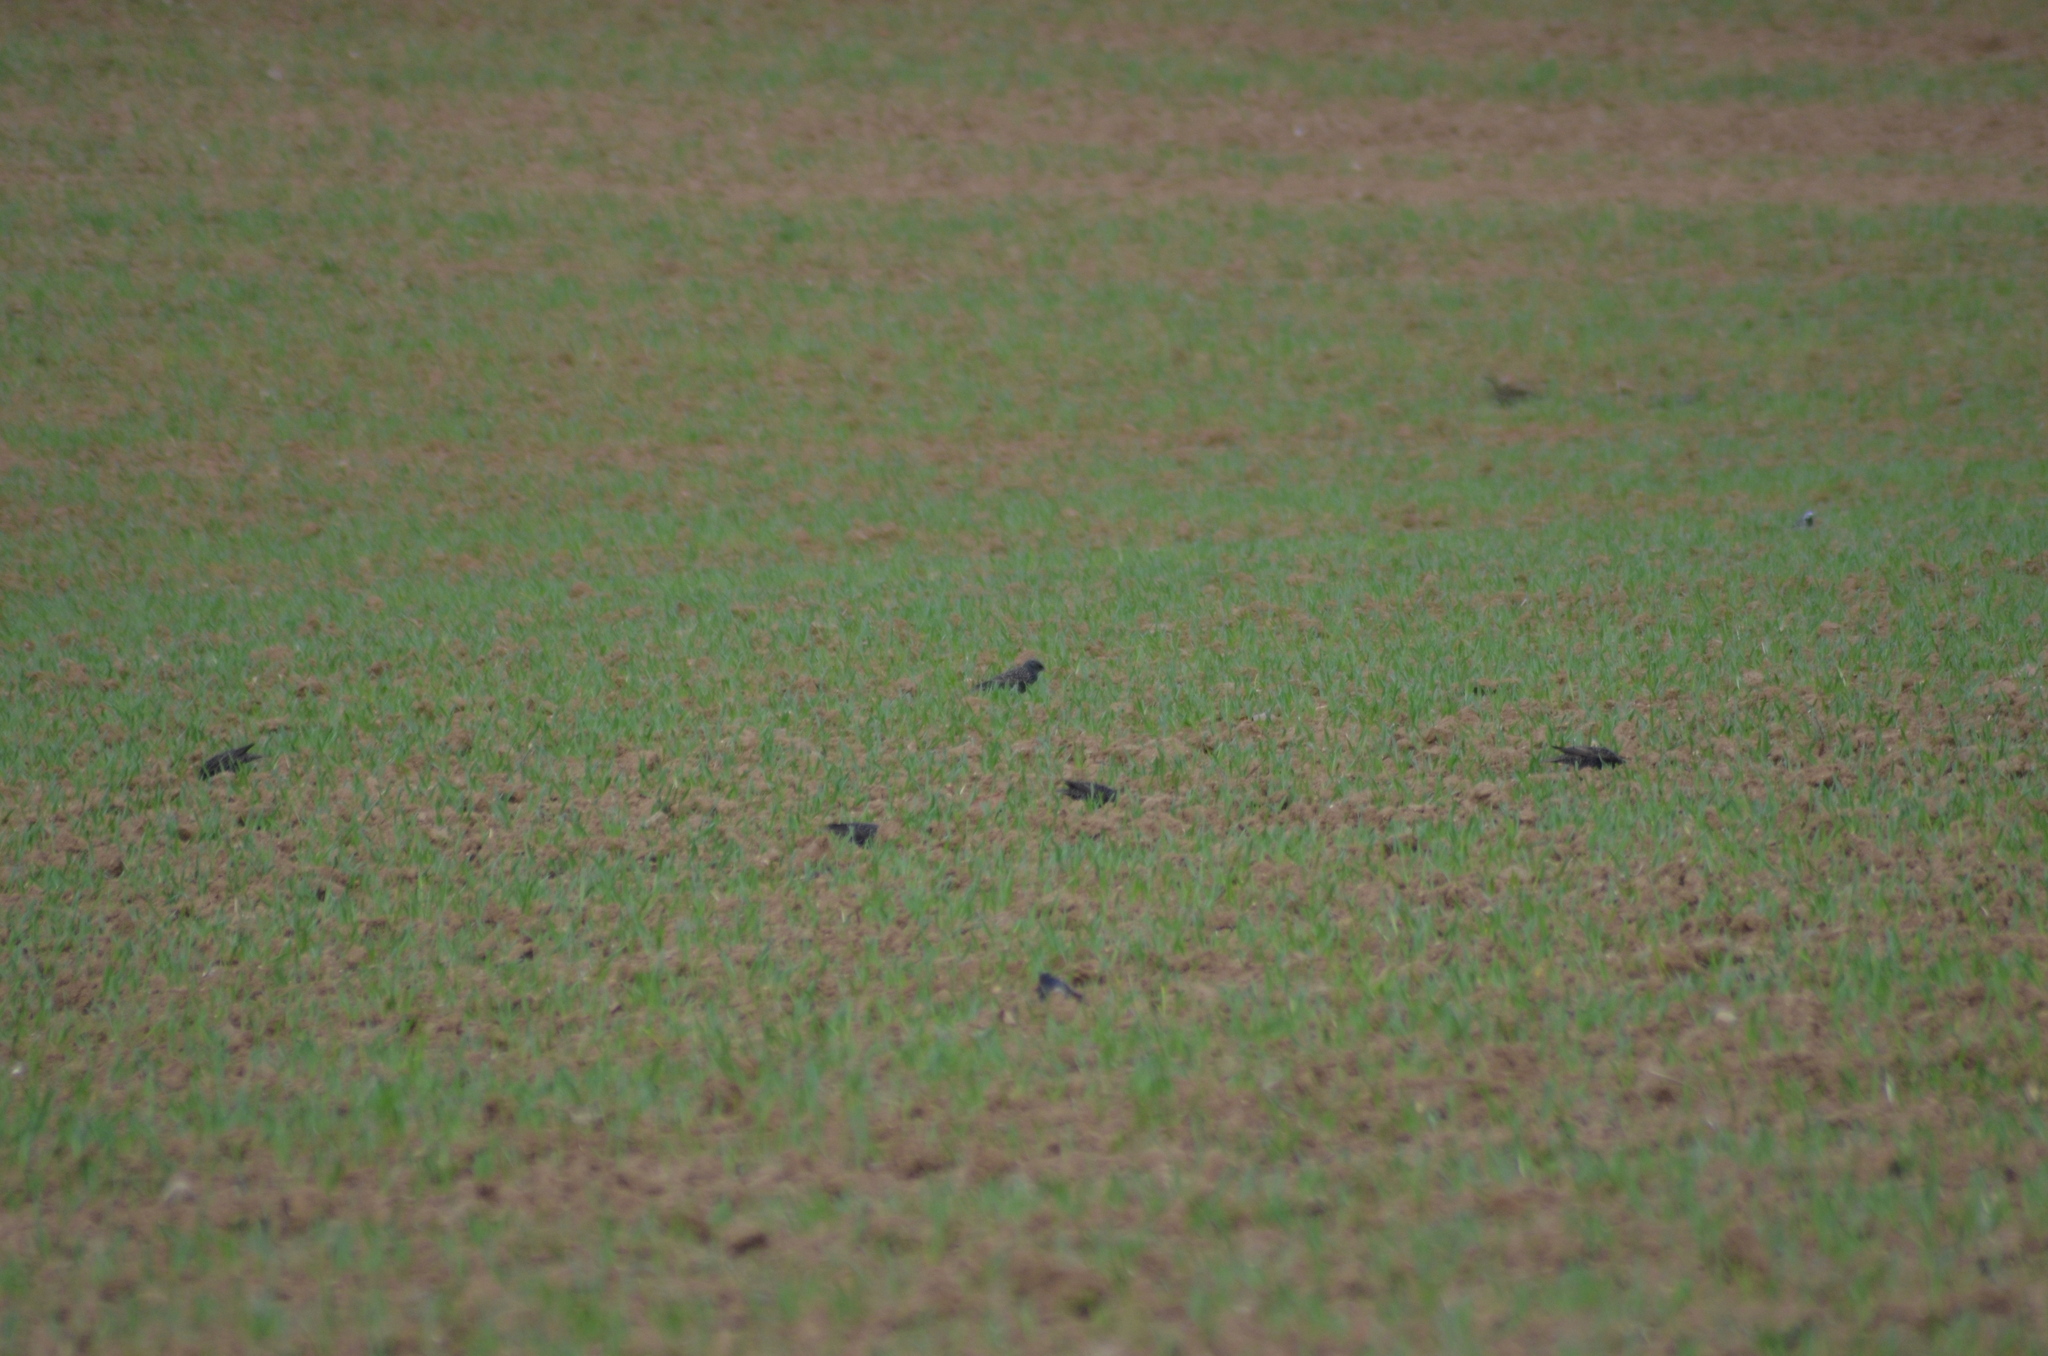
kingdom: Animalia
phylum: Chordata
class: Aves
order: Passeriformes
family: Sturnidae
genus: Sturnus
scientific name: Sturnus vulgaris
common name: Common starling
